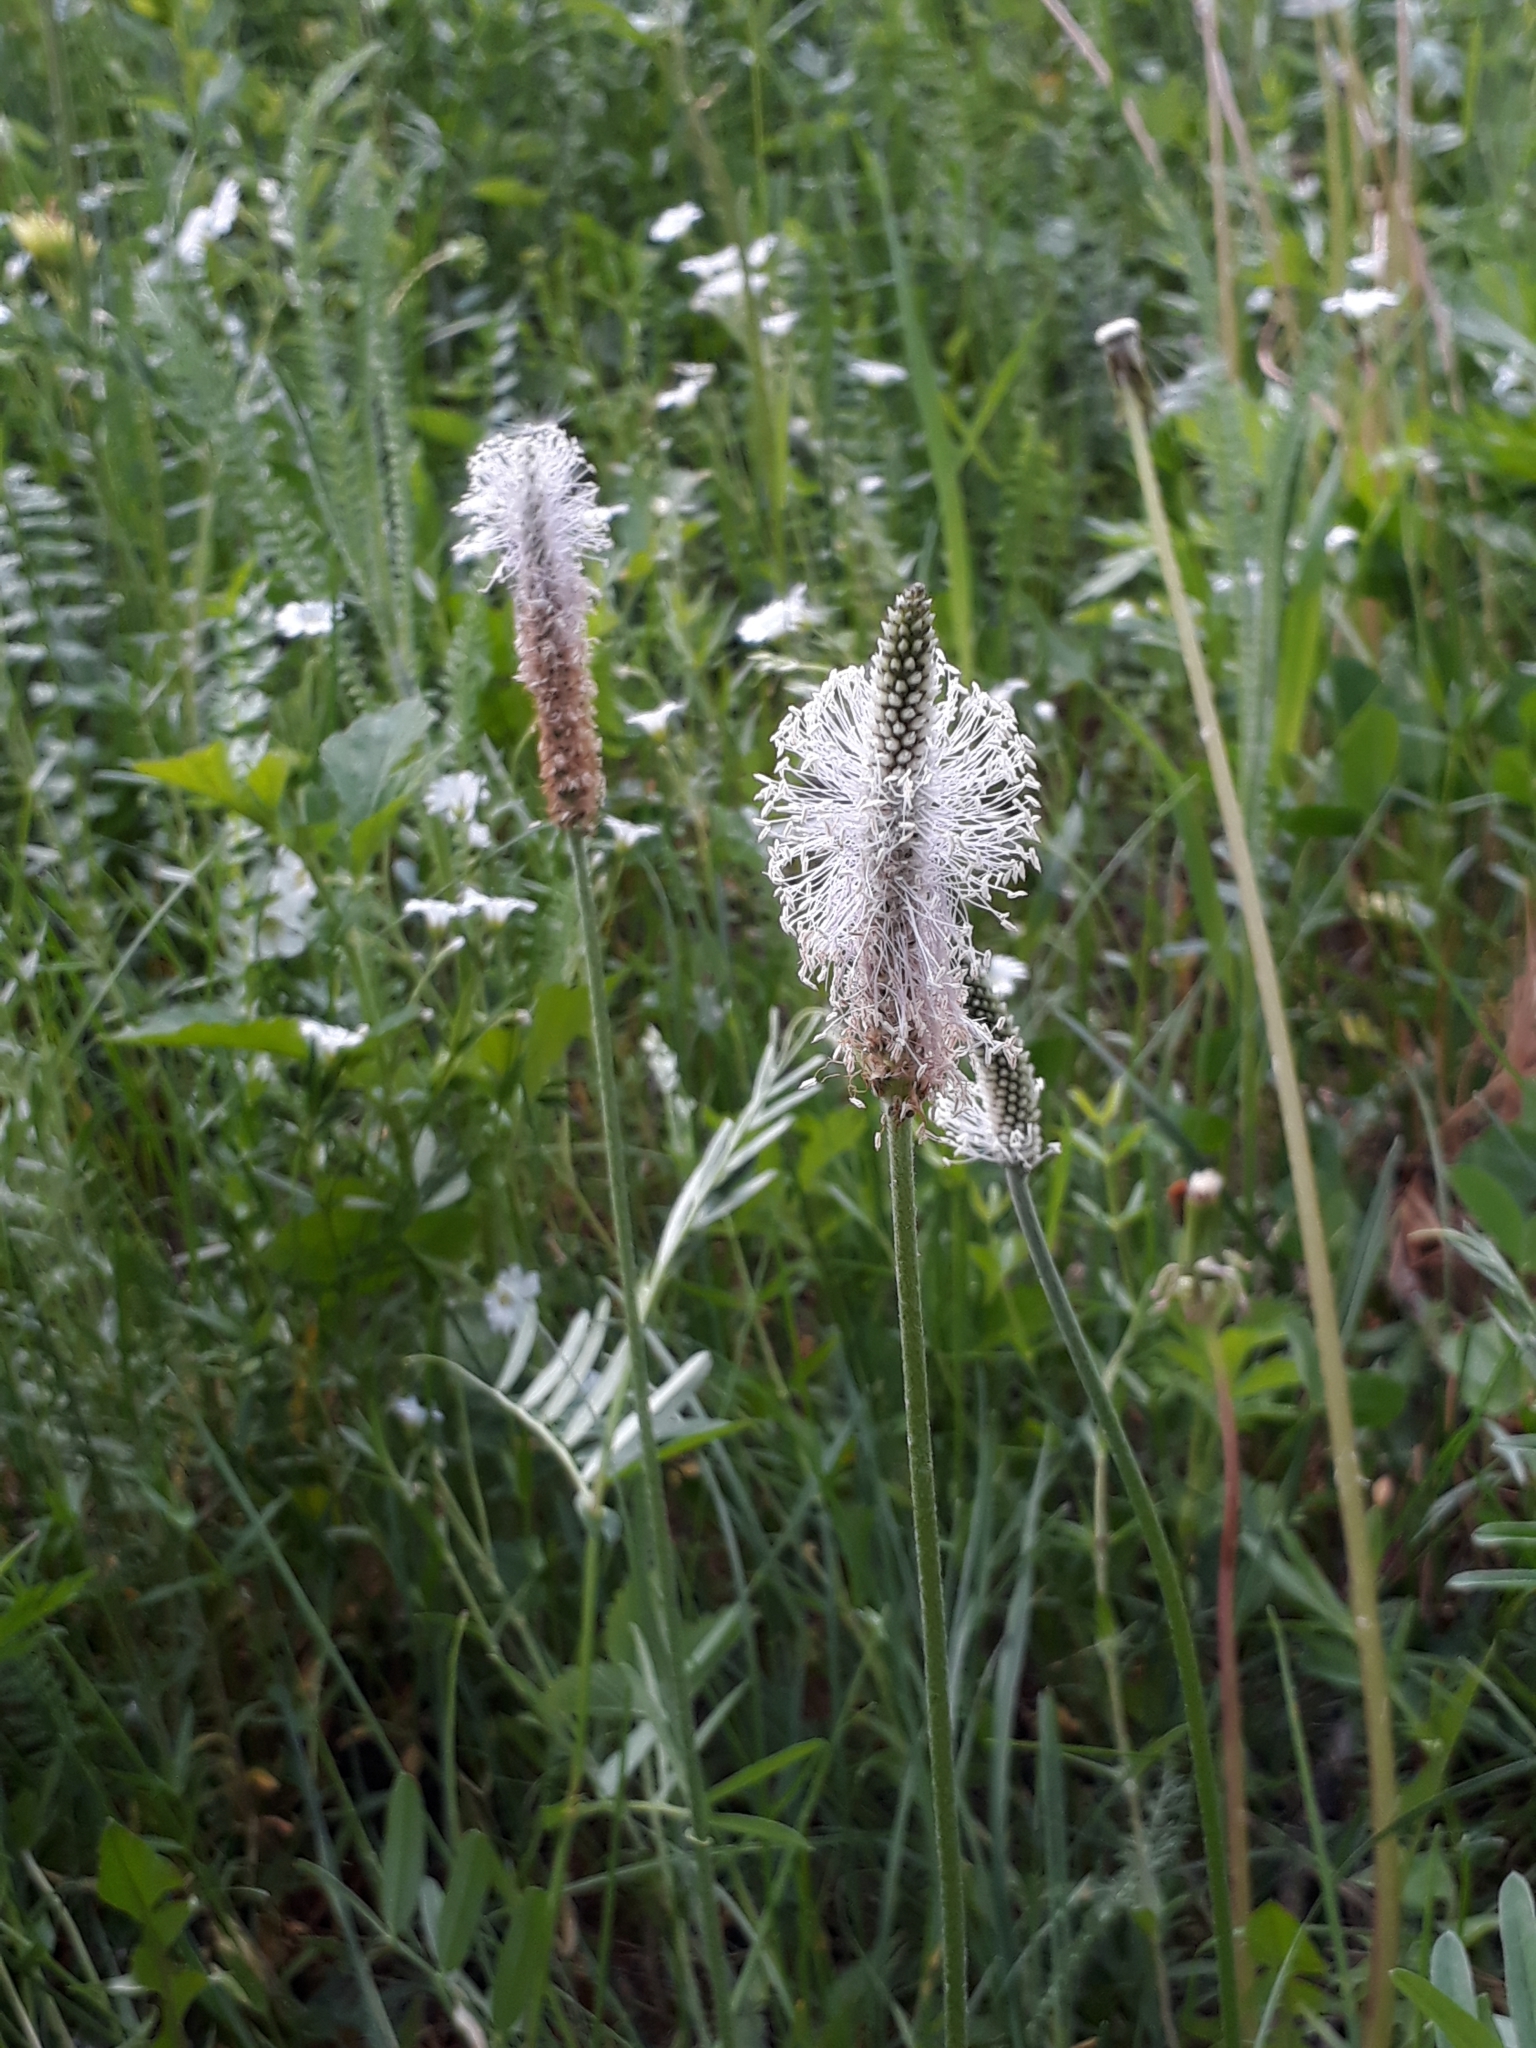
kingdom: Plantae
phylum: Tracheophyta
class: Magnoliopsida
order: Lamiales
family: Plantaginaceae
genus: Plantago
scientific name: Plantago media
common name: Hoary plantain
